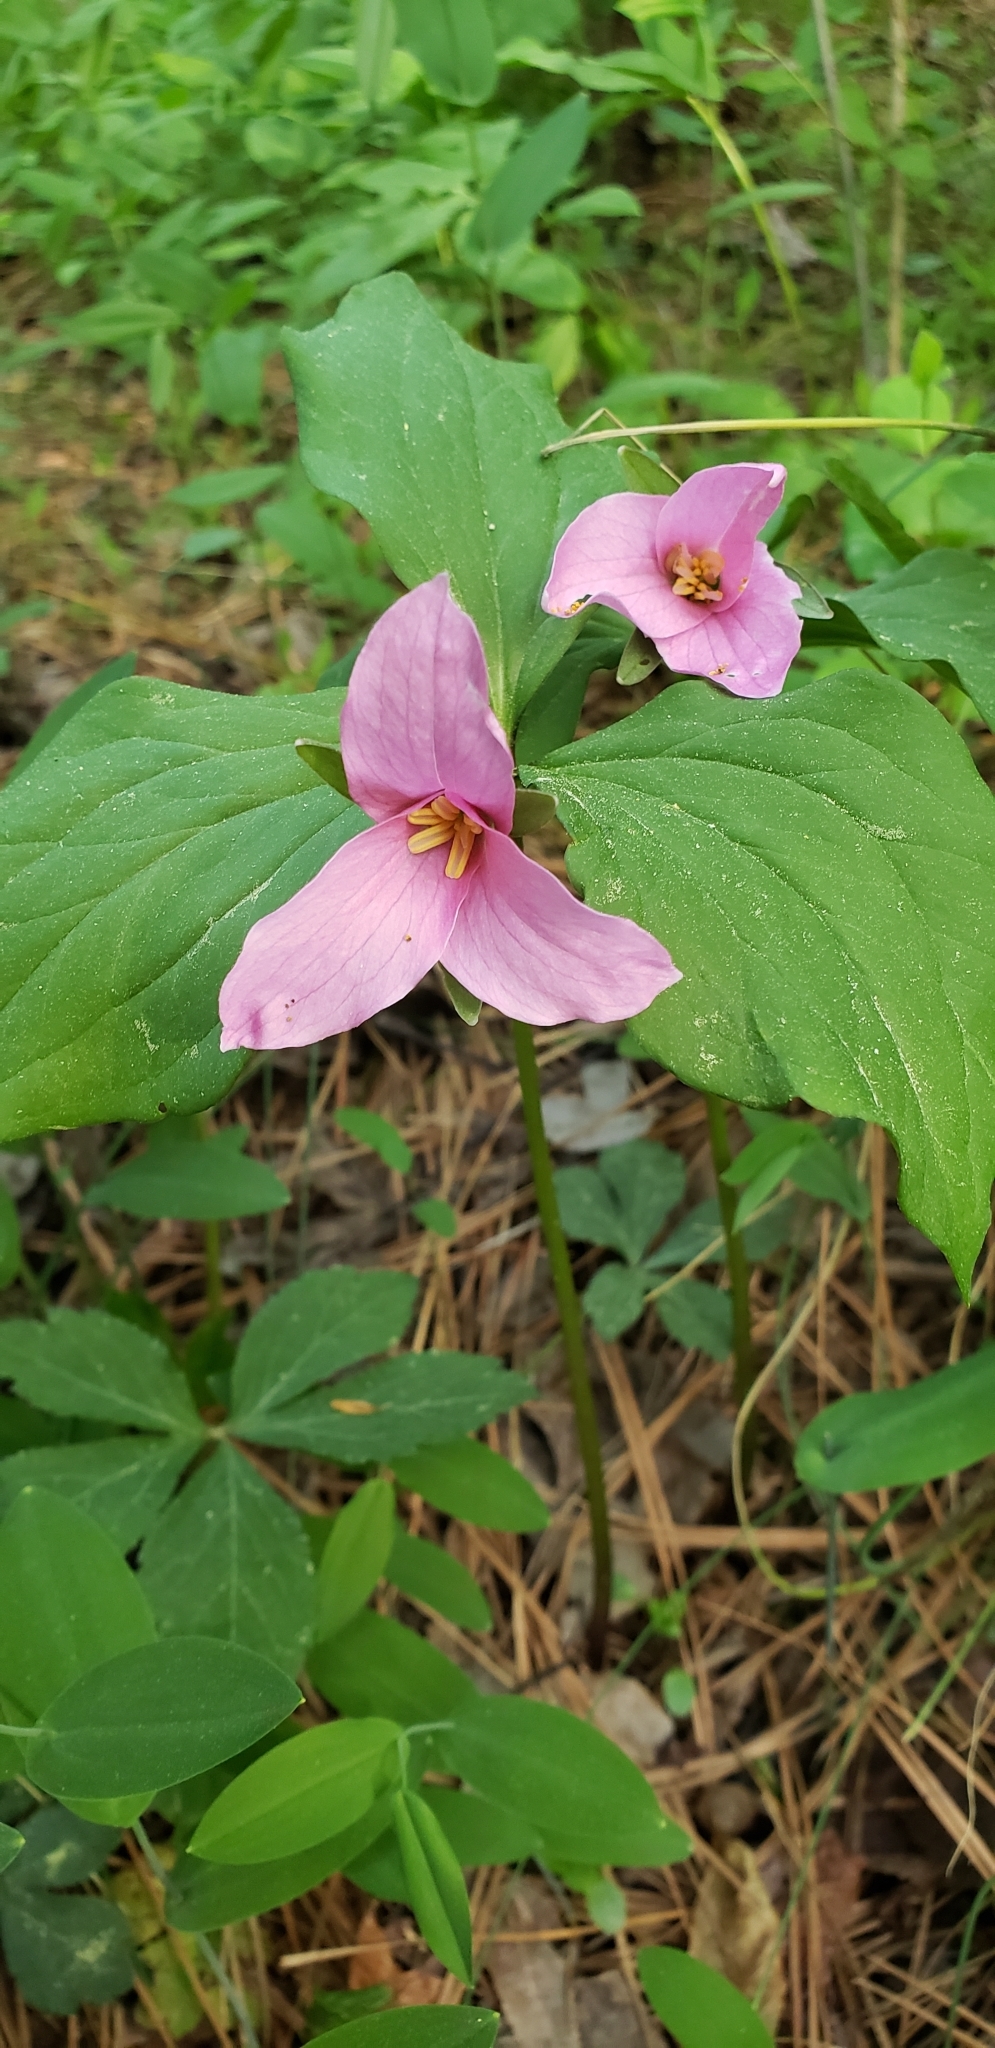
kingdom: Plantae
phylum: Tracheophyta
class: Liliopsida
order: Liliales
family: Melanthiaceae
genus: Trillium
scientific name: Trillium catesbaei
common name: Bashful trillium
